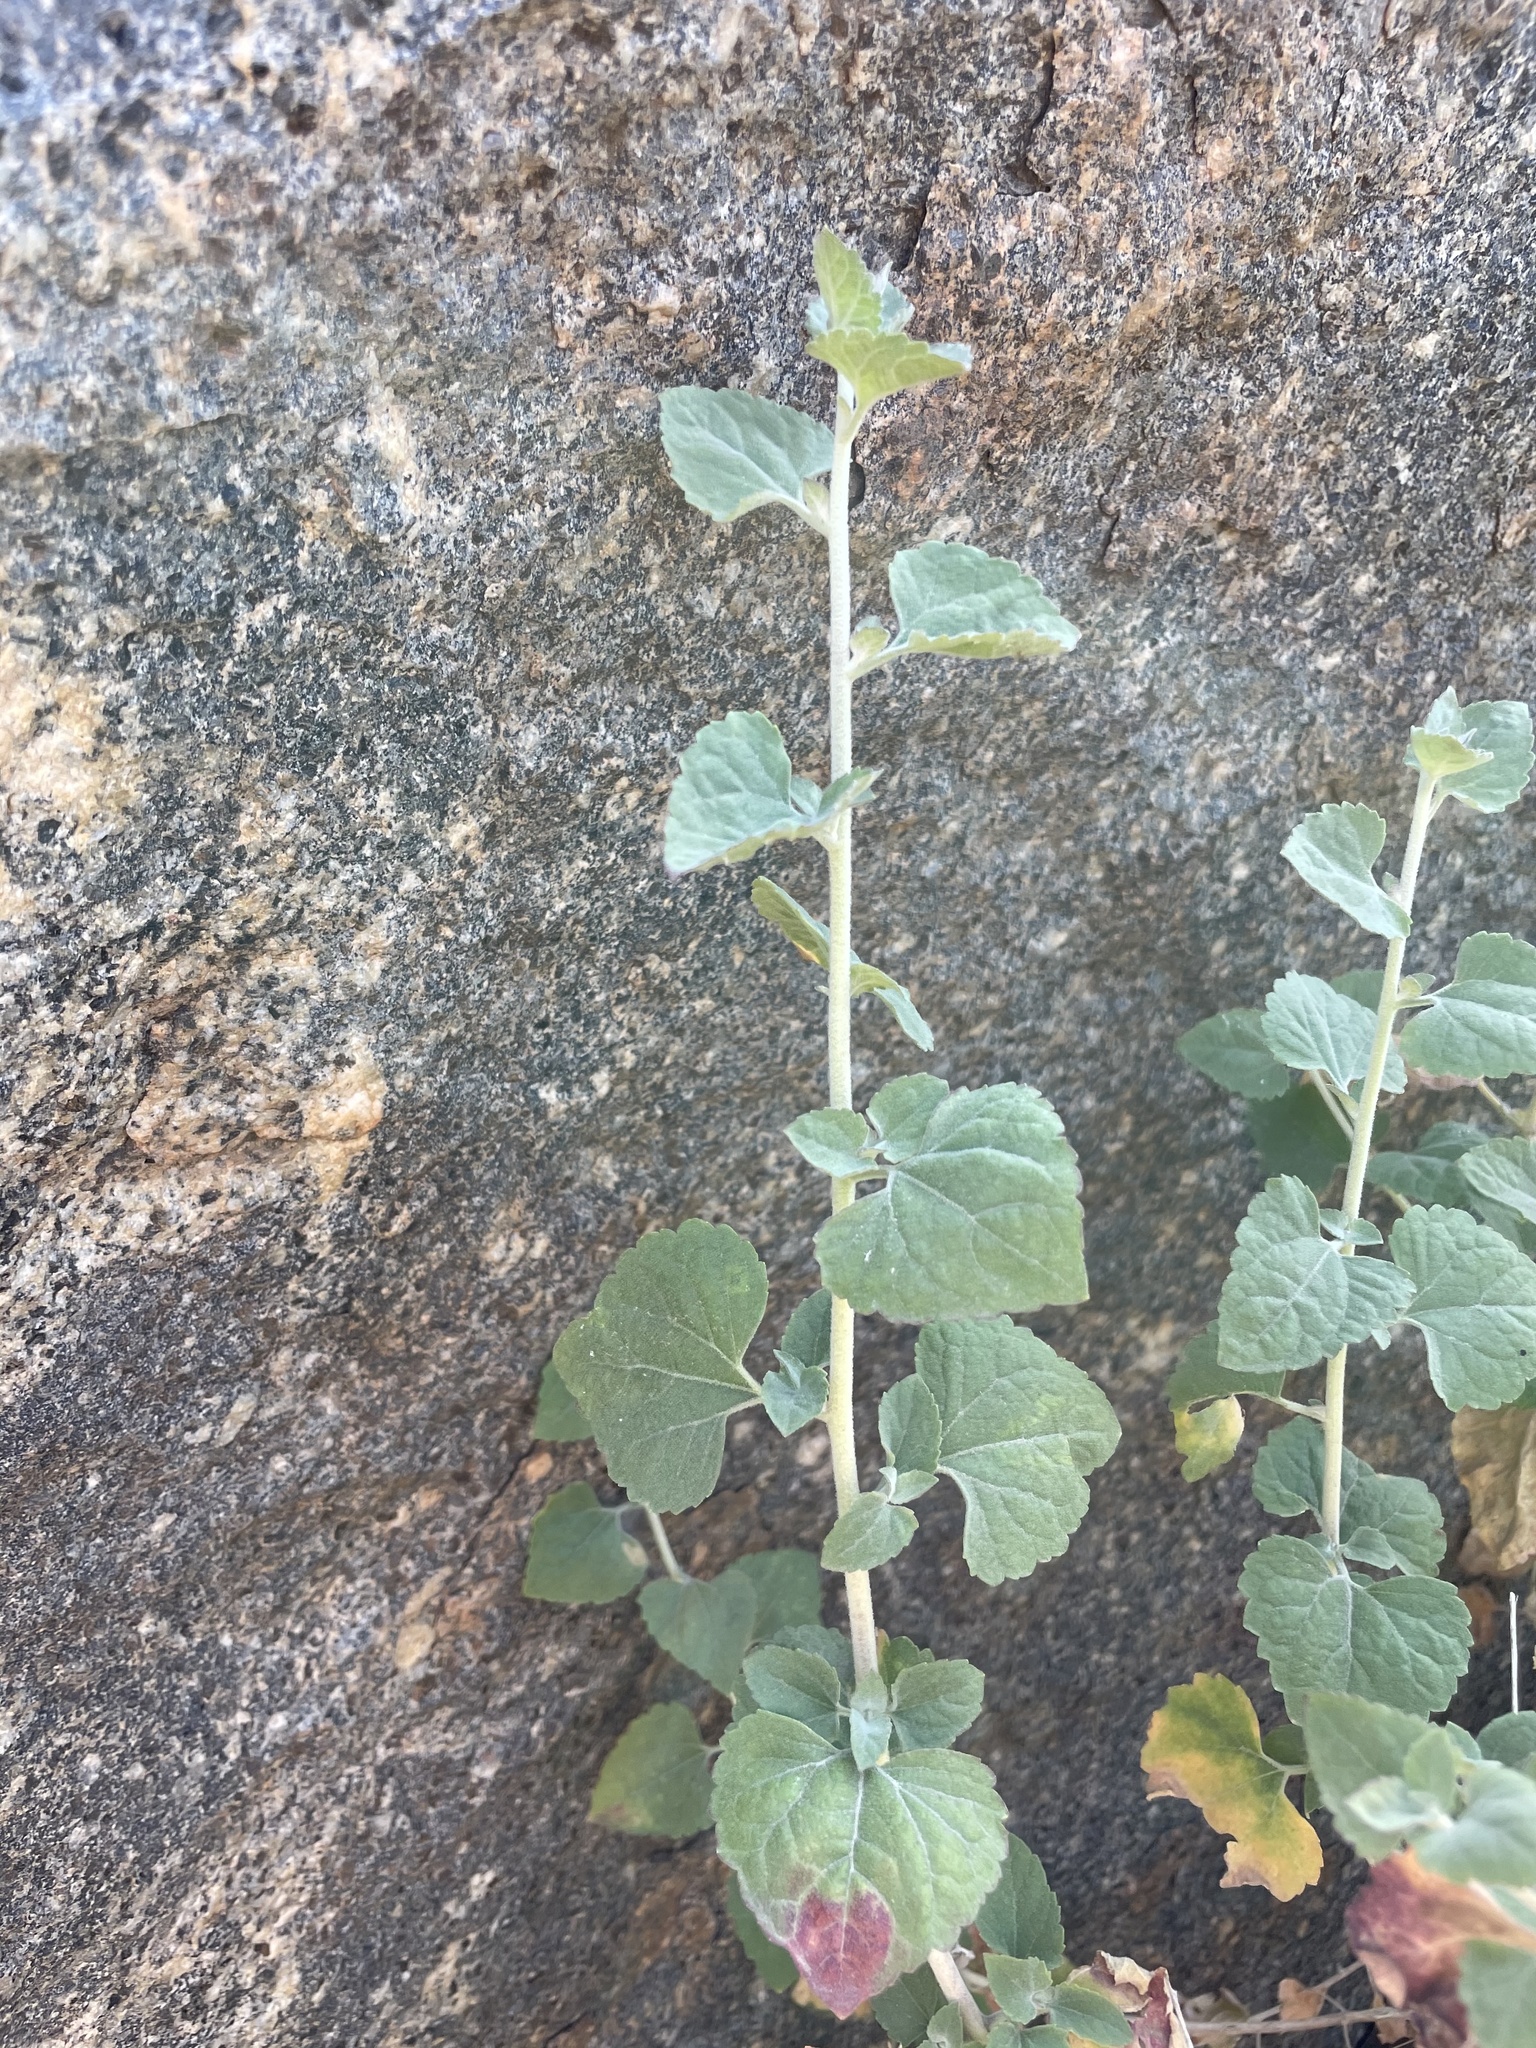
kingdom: Plantae
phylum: Tracheophyta
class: Magnoliopsida
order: Asterales
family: Asteraceae
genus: Brickellia
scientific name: Brickellia californica
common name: California brickellbush
